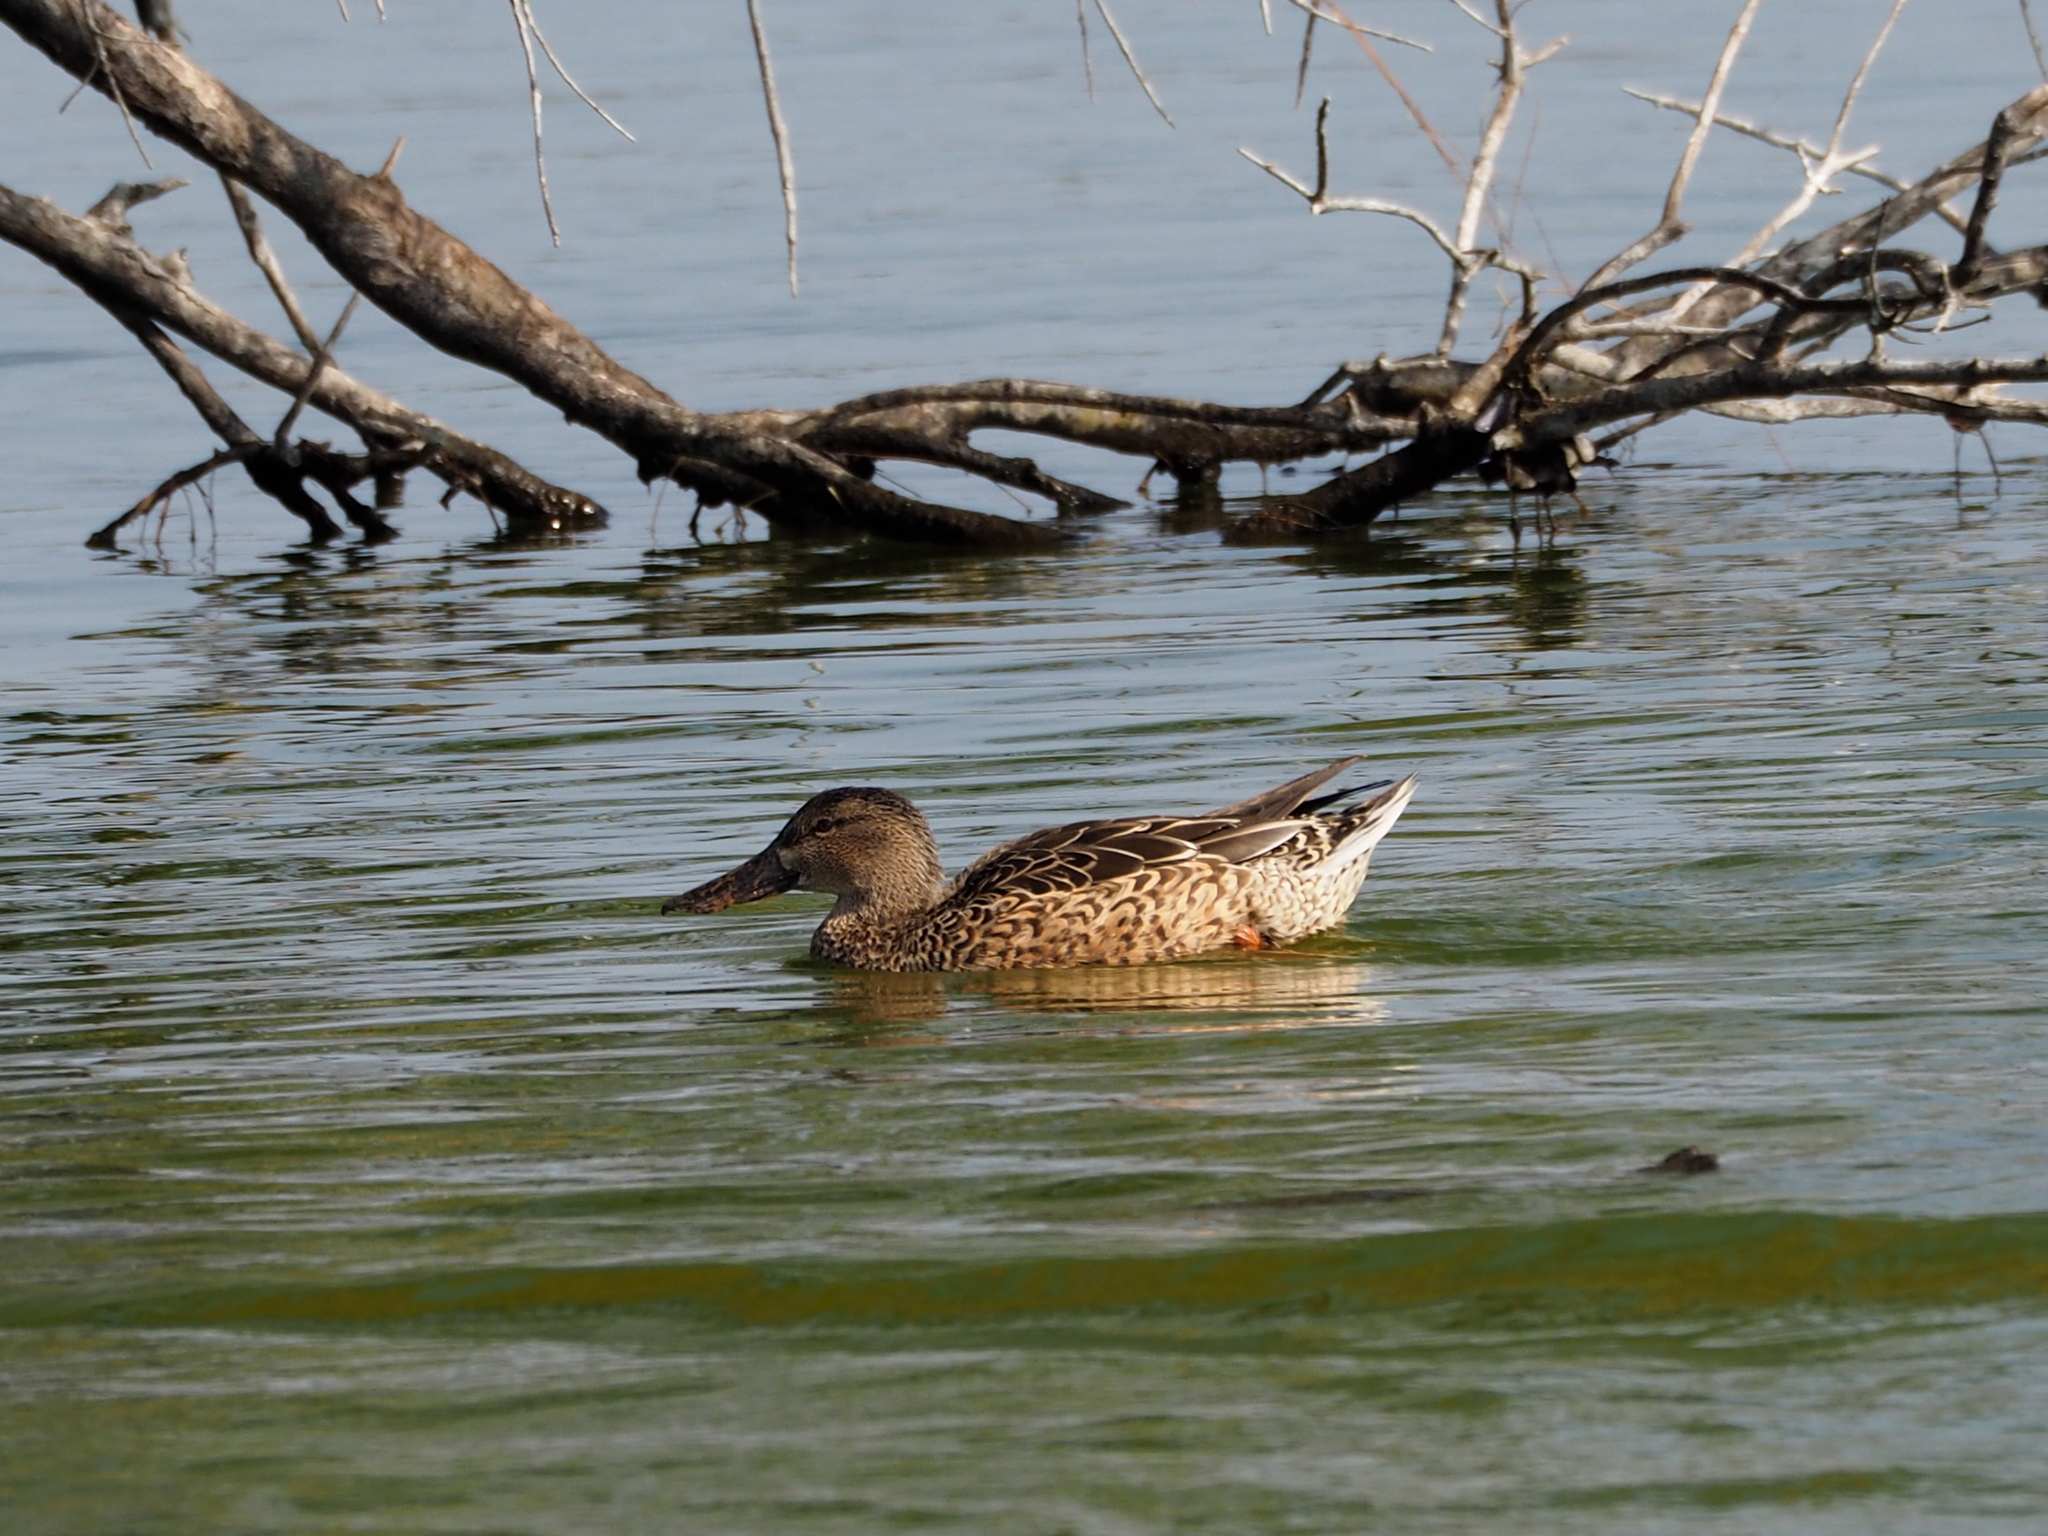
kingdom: Animalia
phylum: Chordata
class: Aves
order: Anseriformes
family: Anatidae
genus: Spatula
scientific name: Spatula clypeata
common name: Northern shoveler
